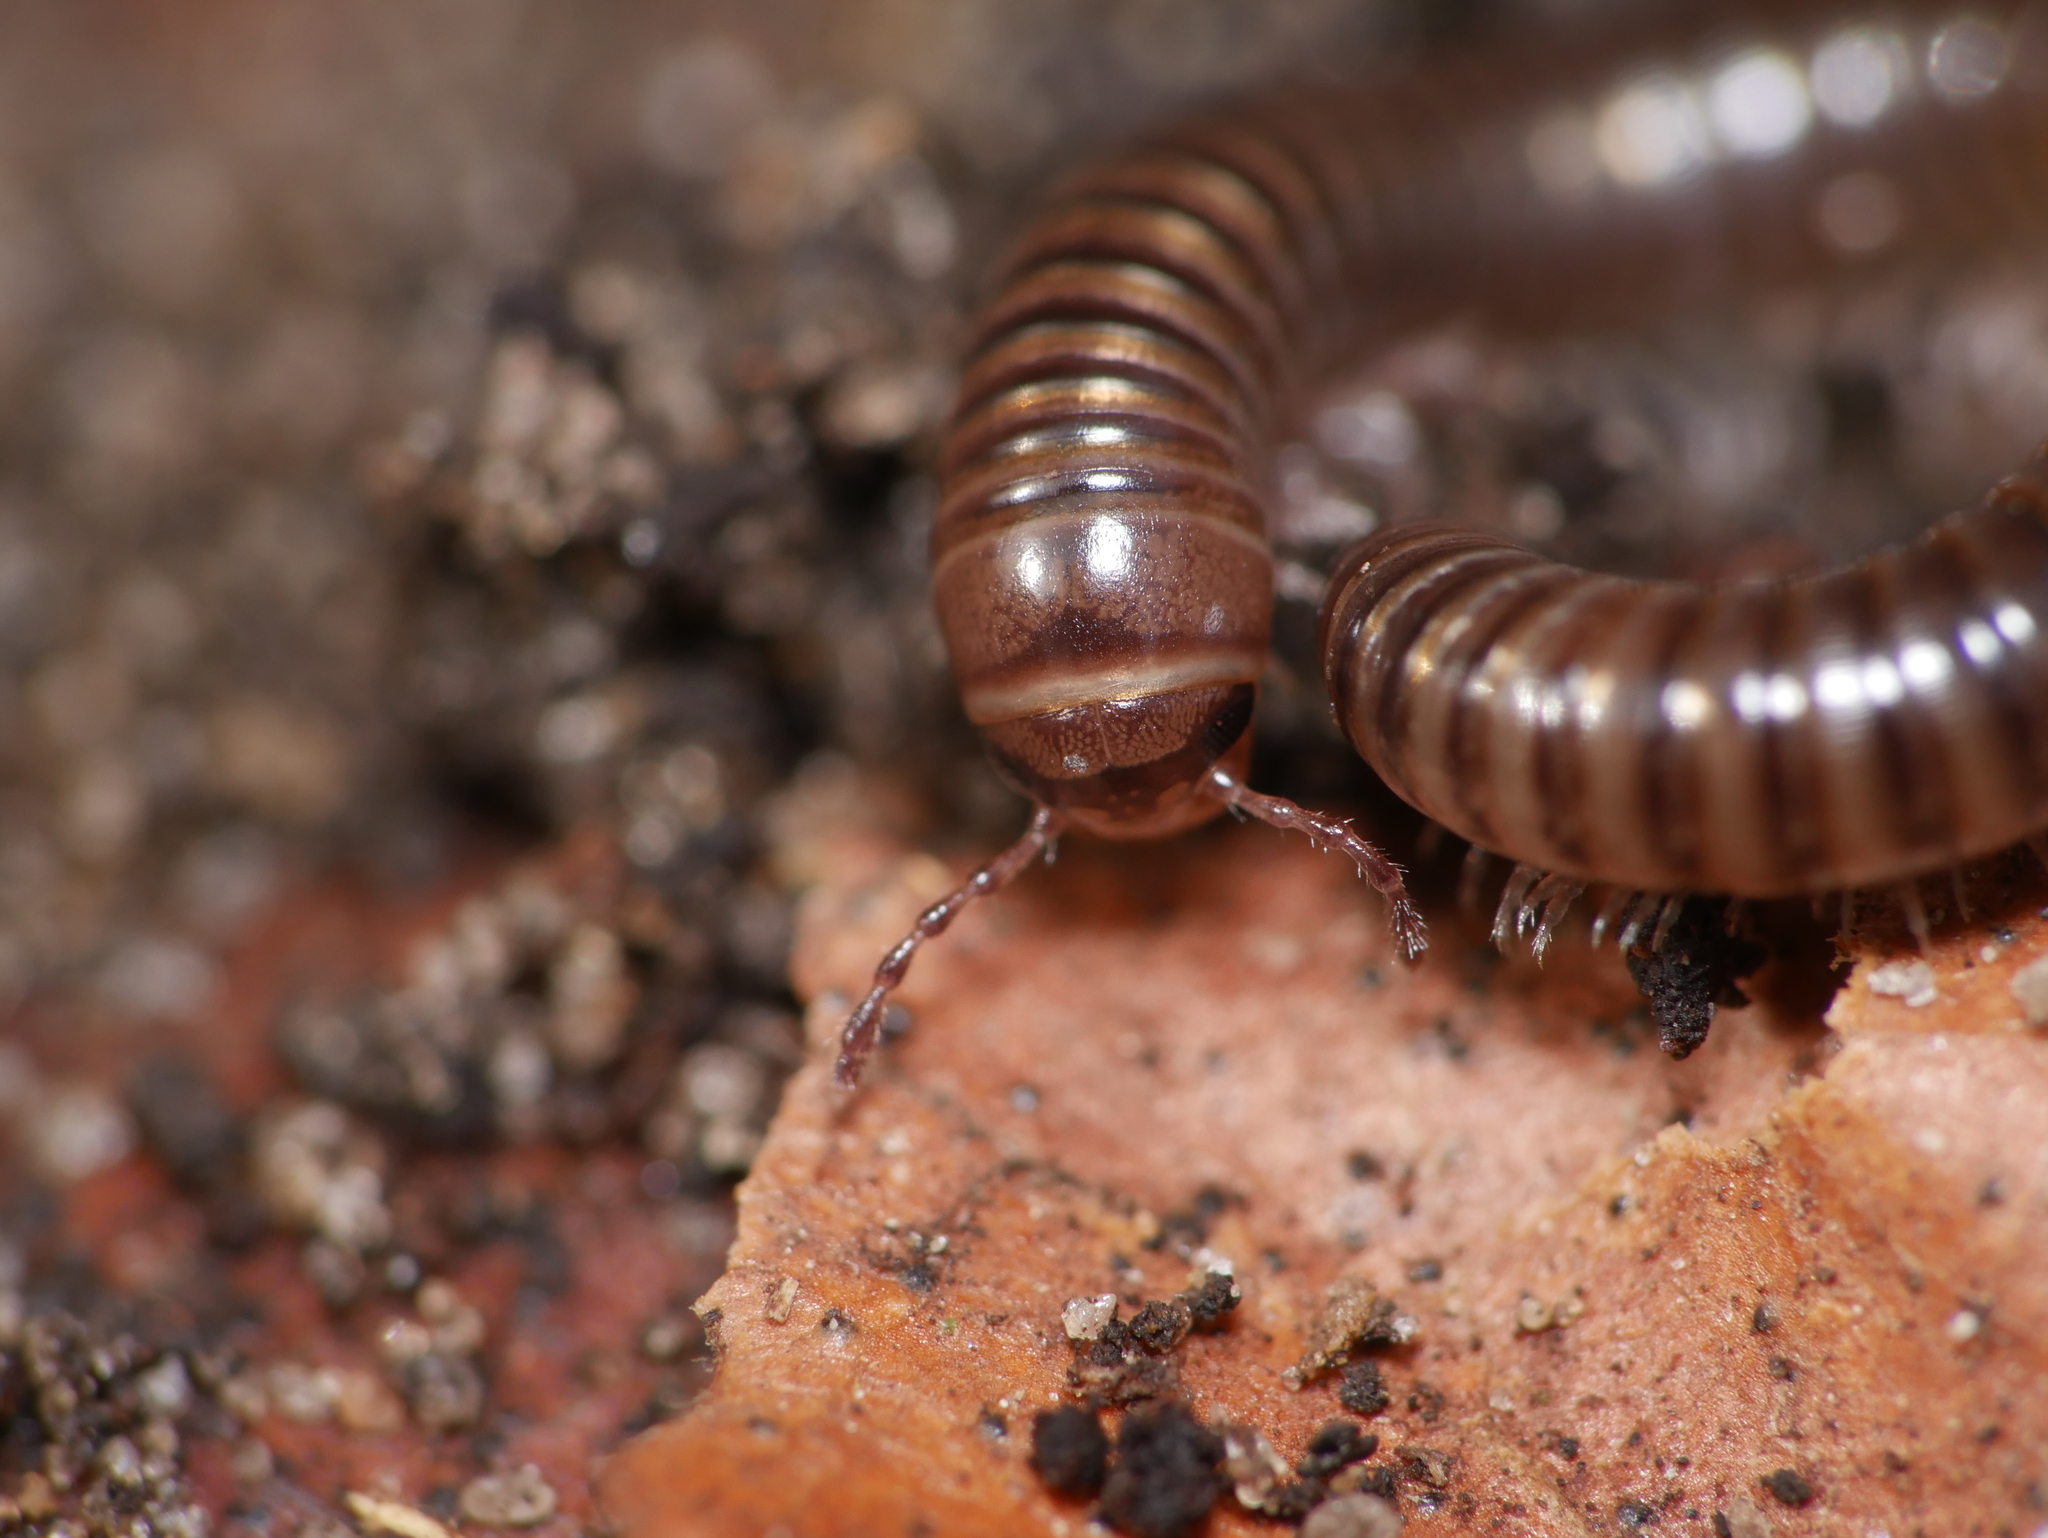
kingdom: Animalia
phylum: Arthropoda
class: Diplopoda
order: Julida
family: Julidae
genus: Cylindroiulus
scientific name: Cylindroiulus caeruleocinctus
